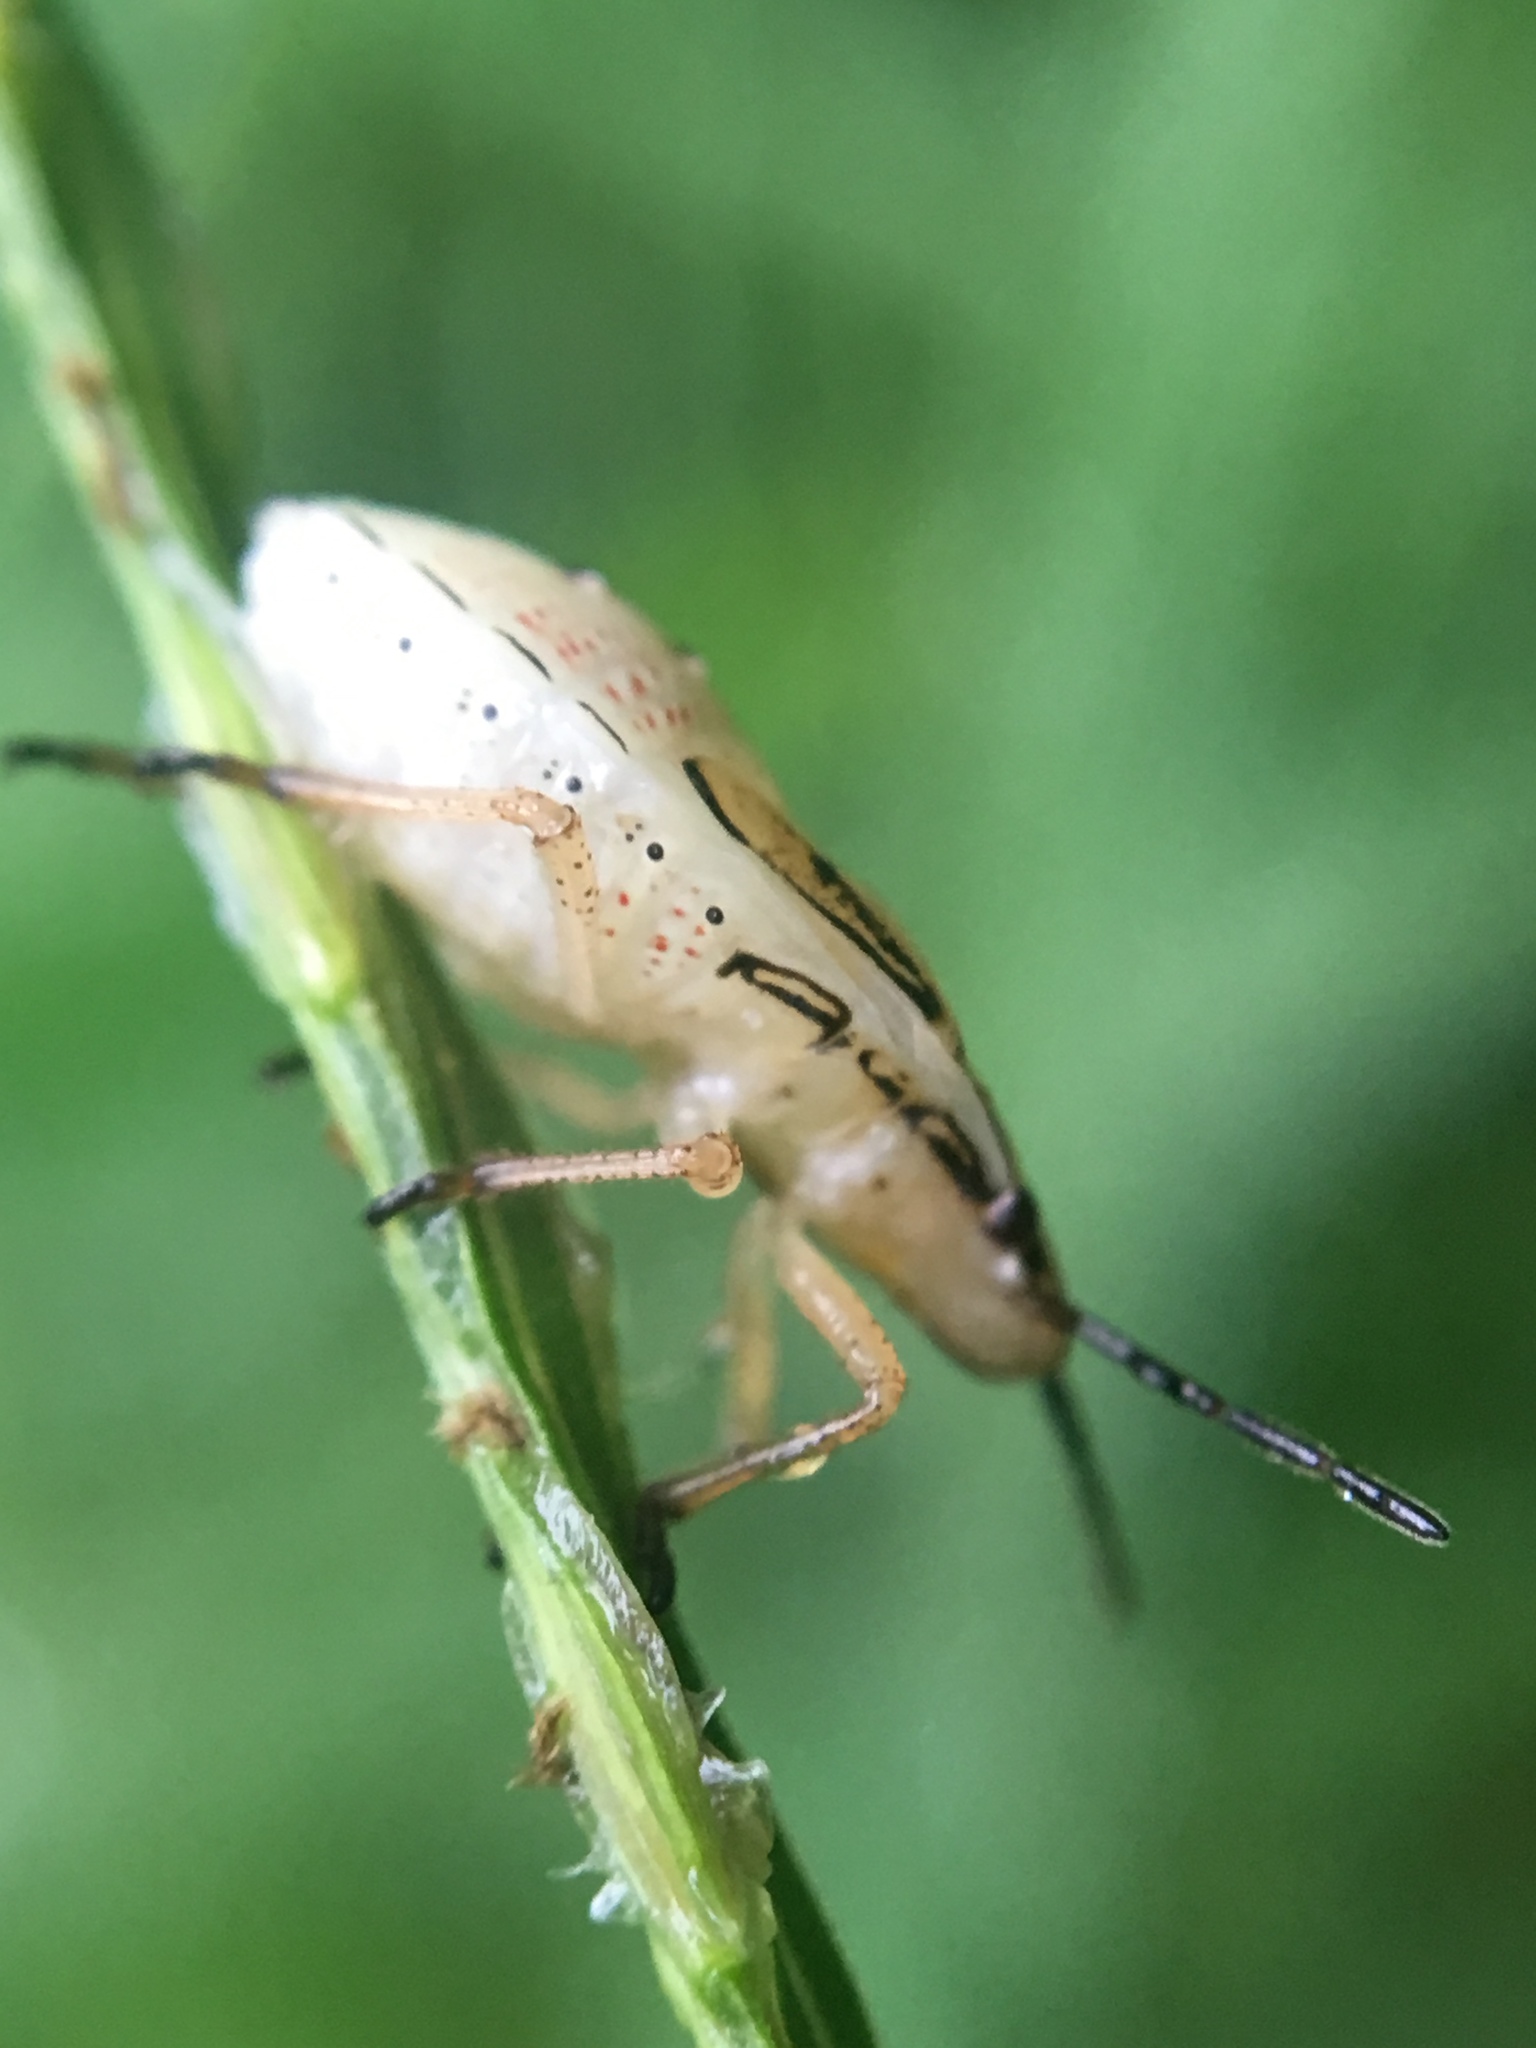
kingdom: Animalia
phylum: Arthropoda
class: Insecta
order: Hemiptera
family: Pentatomidae
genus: Oebalus
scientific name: Oebalus pugnax
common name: Rice stink bug
